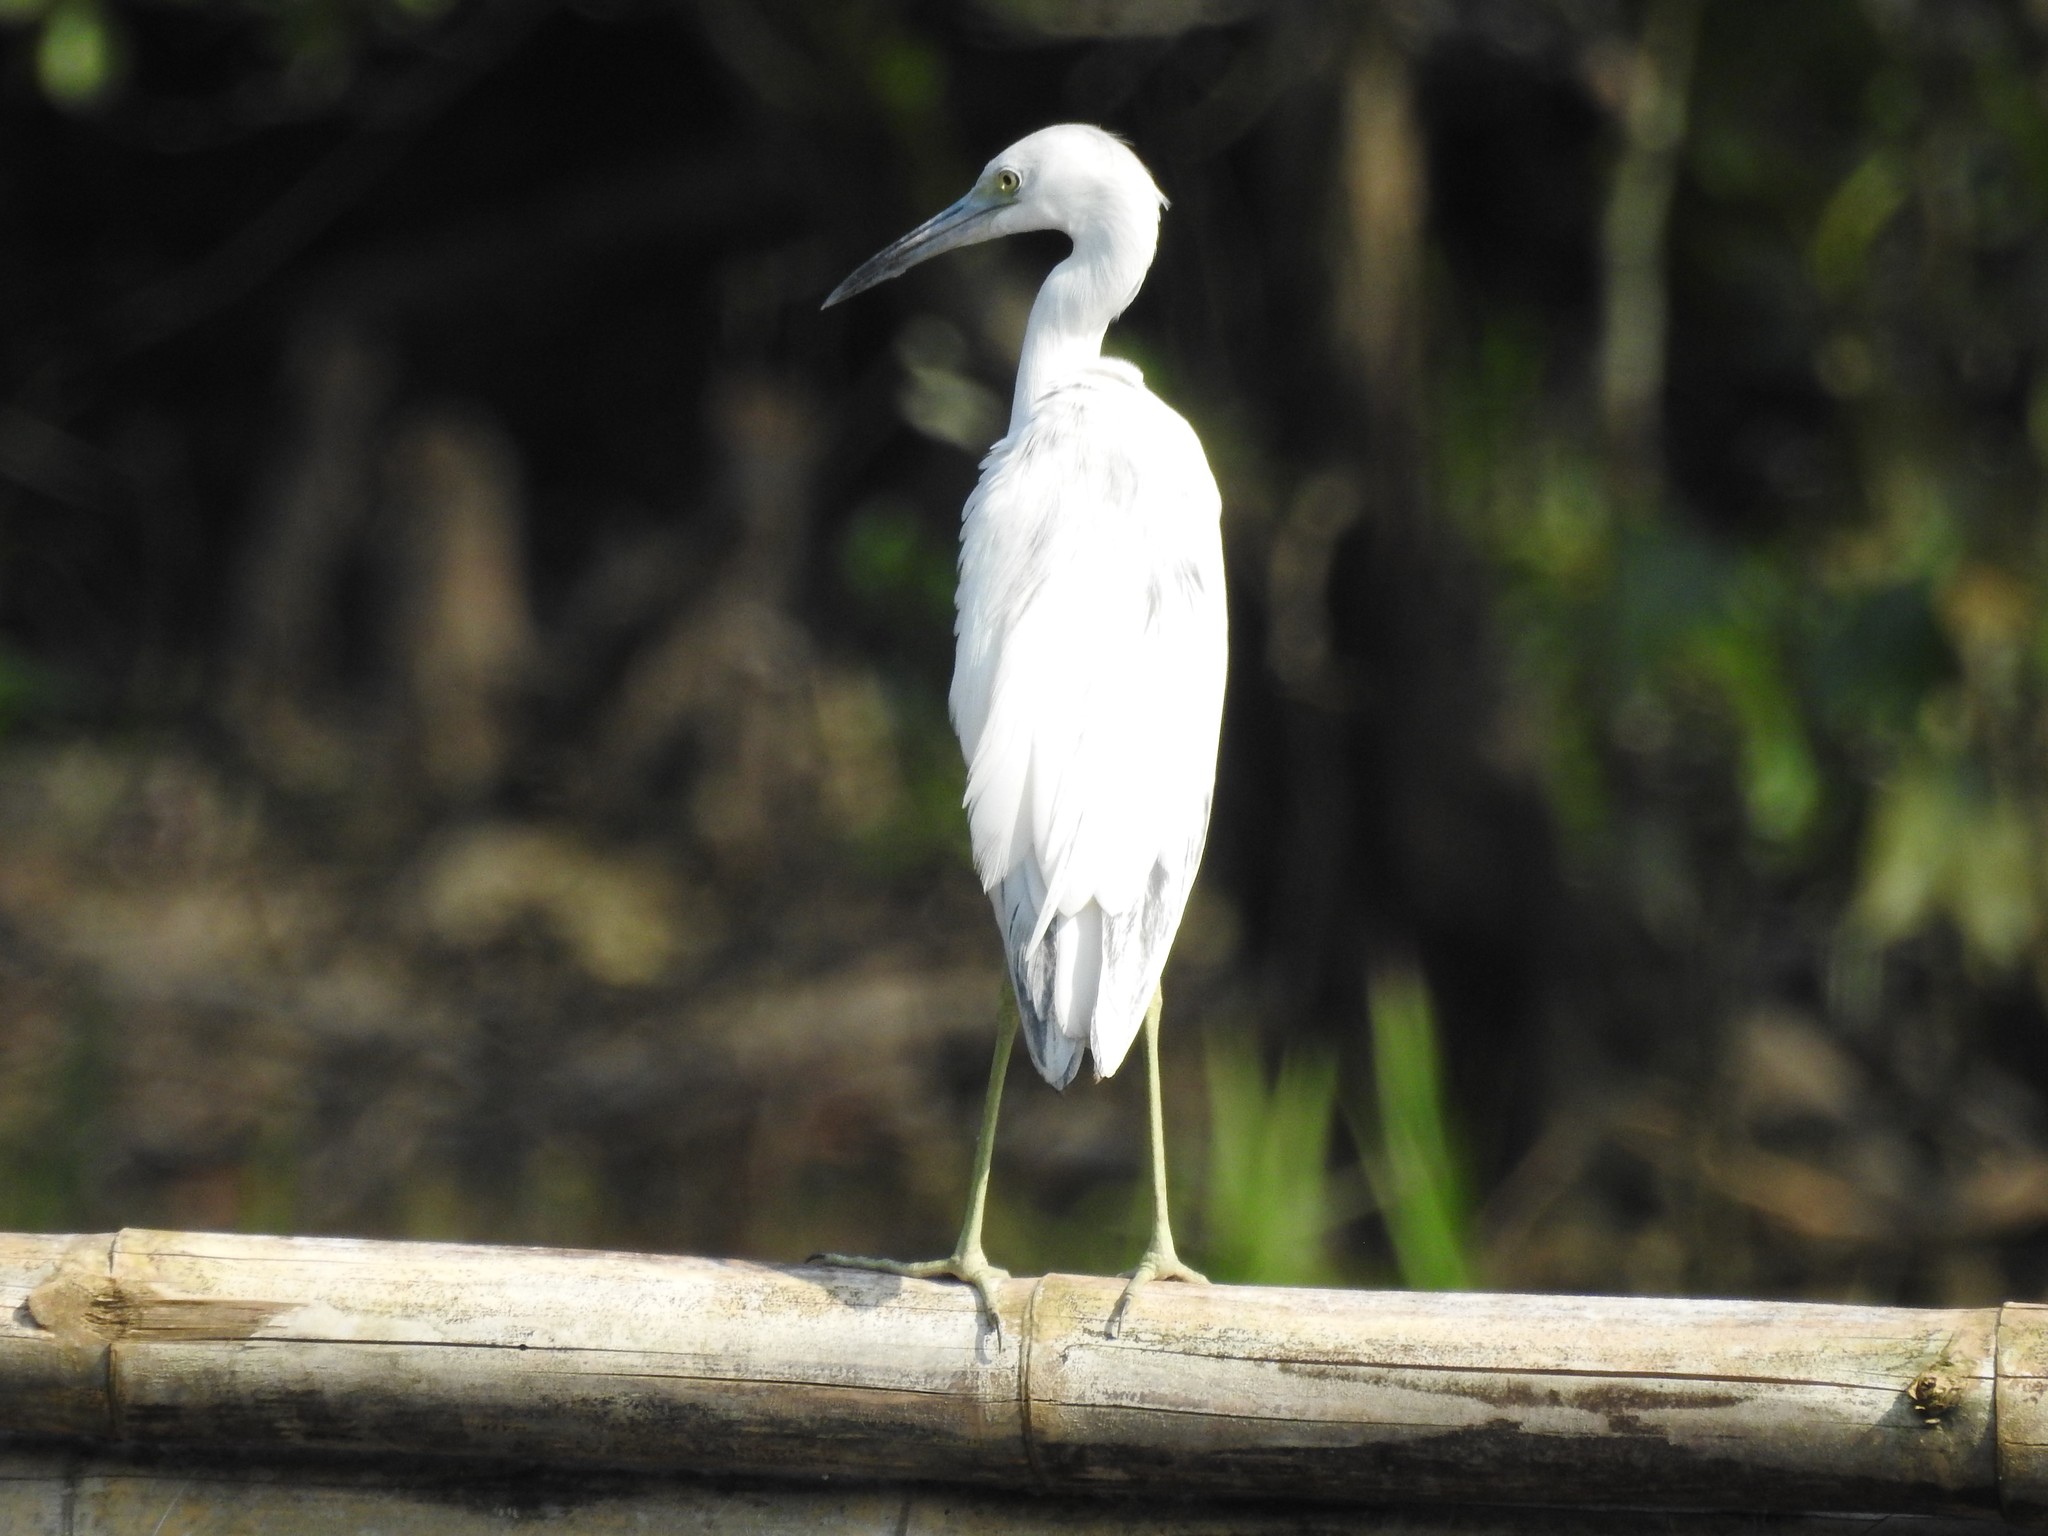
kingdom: Animalia
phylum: Chordata
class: Aves
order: Pelecaniformes
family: Ardeidae
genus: Egretta
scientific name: Egretta caerulea
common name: Little blue heron
